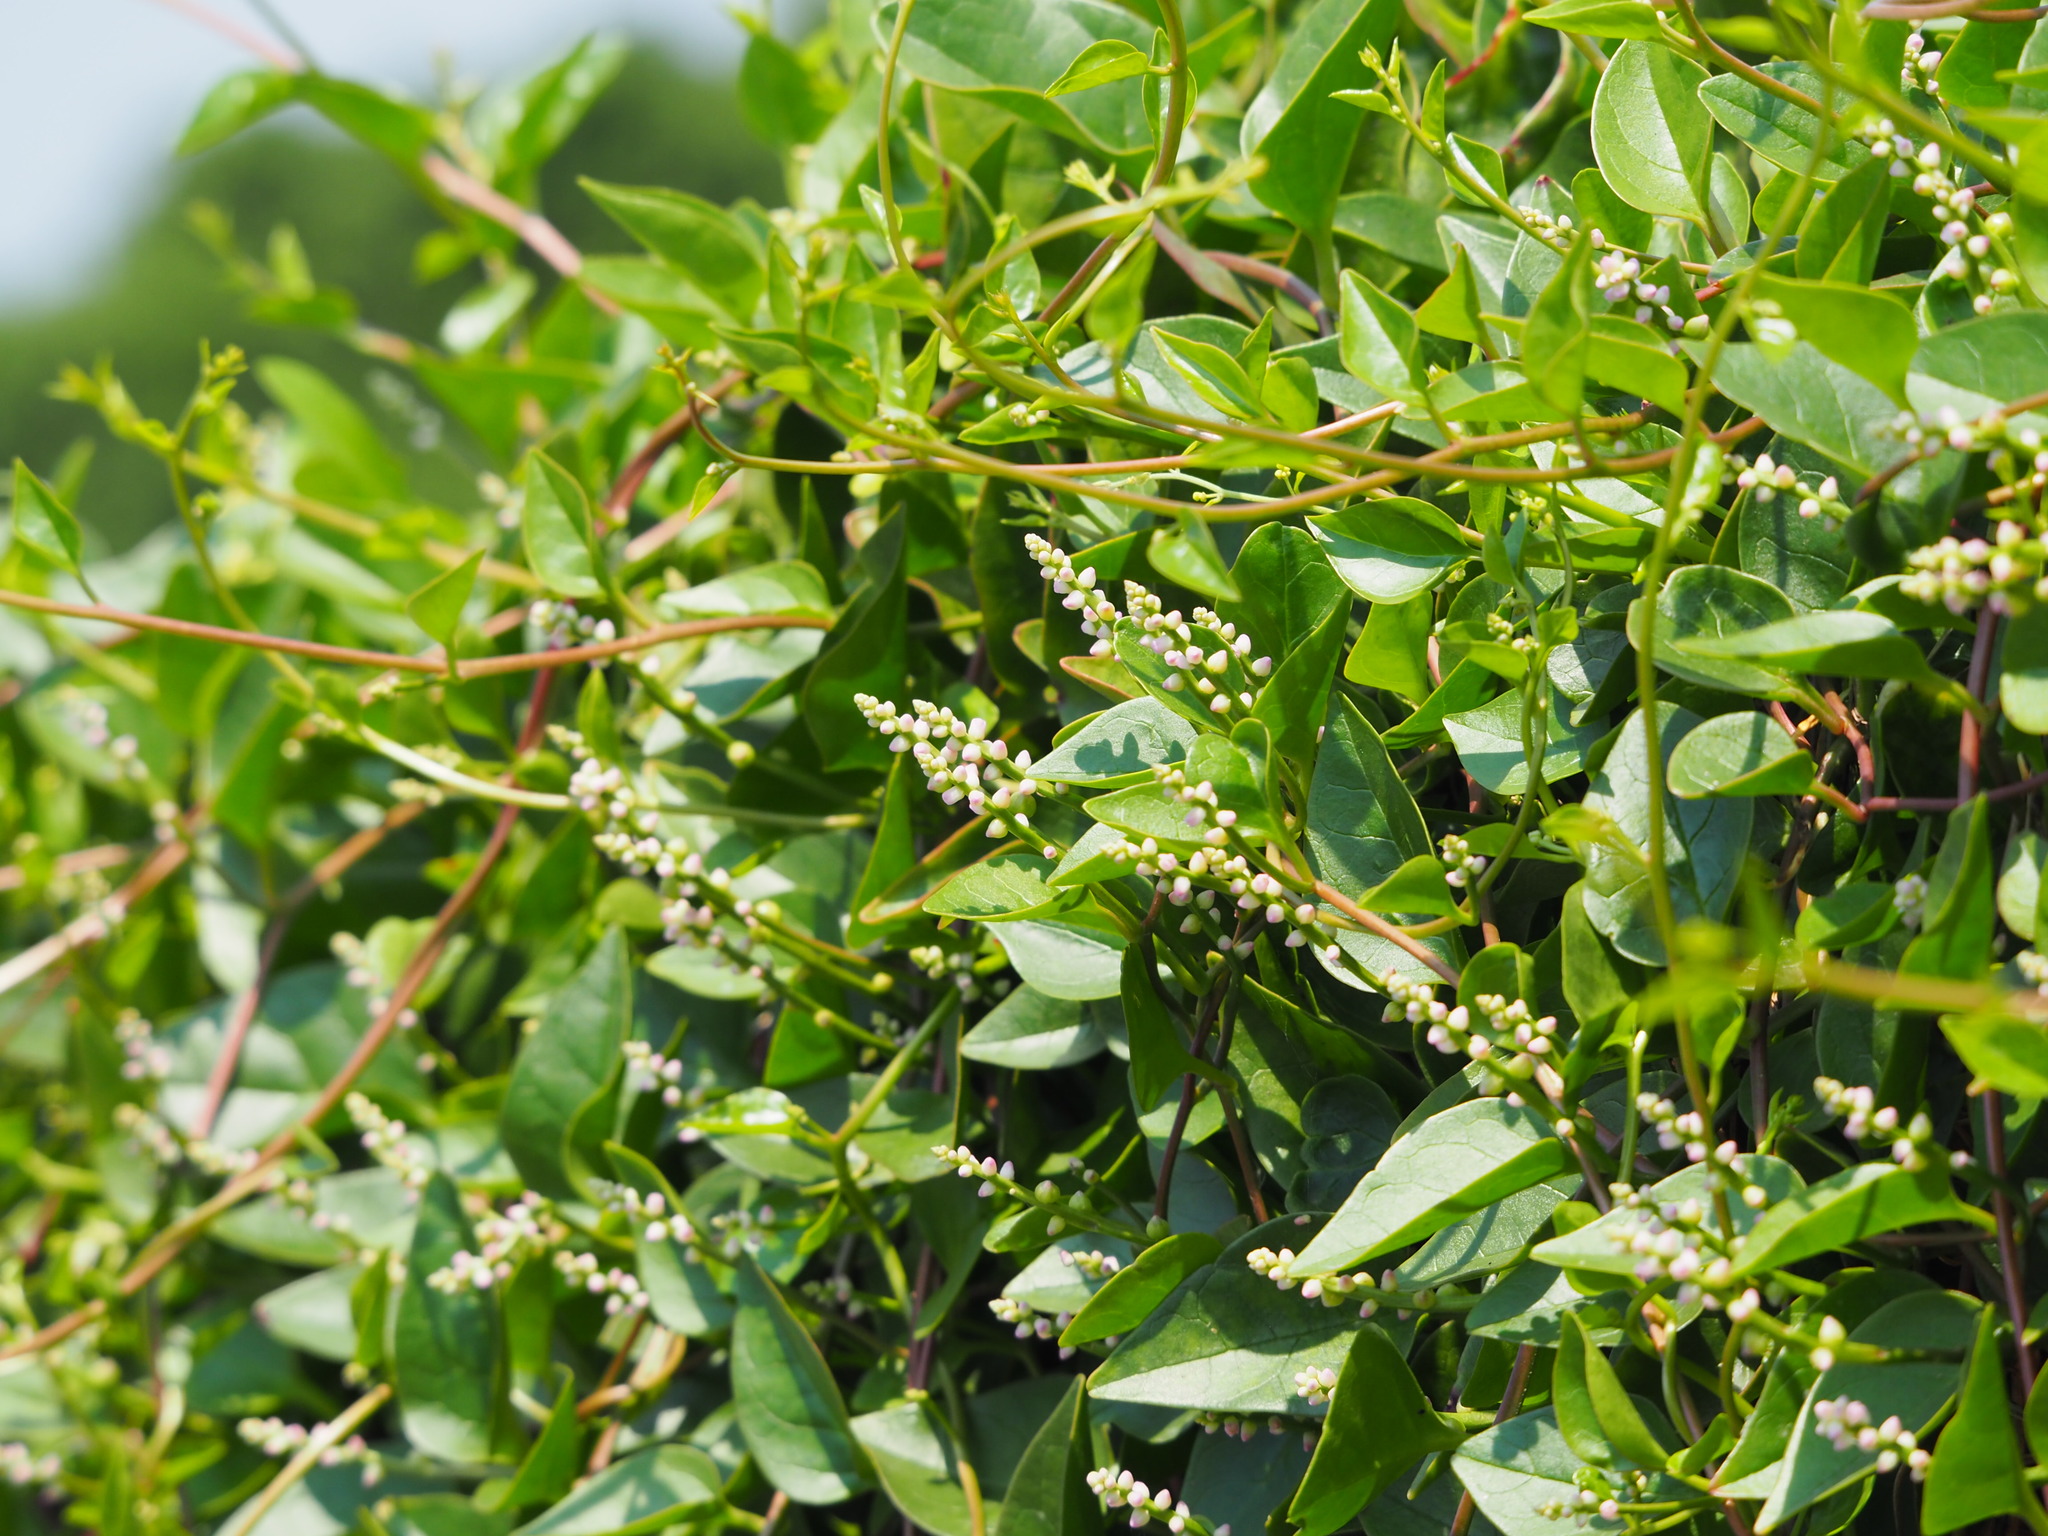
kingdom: Plantae
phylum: Tracheophyta
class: Magnoliopsida
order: Caryophyllales
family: Basellaceae
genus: Basella
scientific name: Basella alba
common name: Indian spinach
